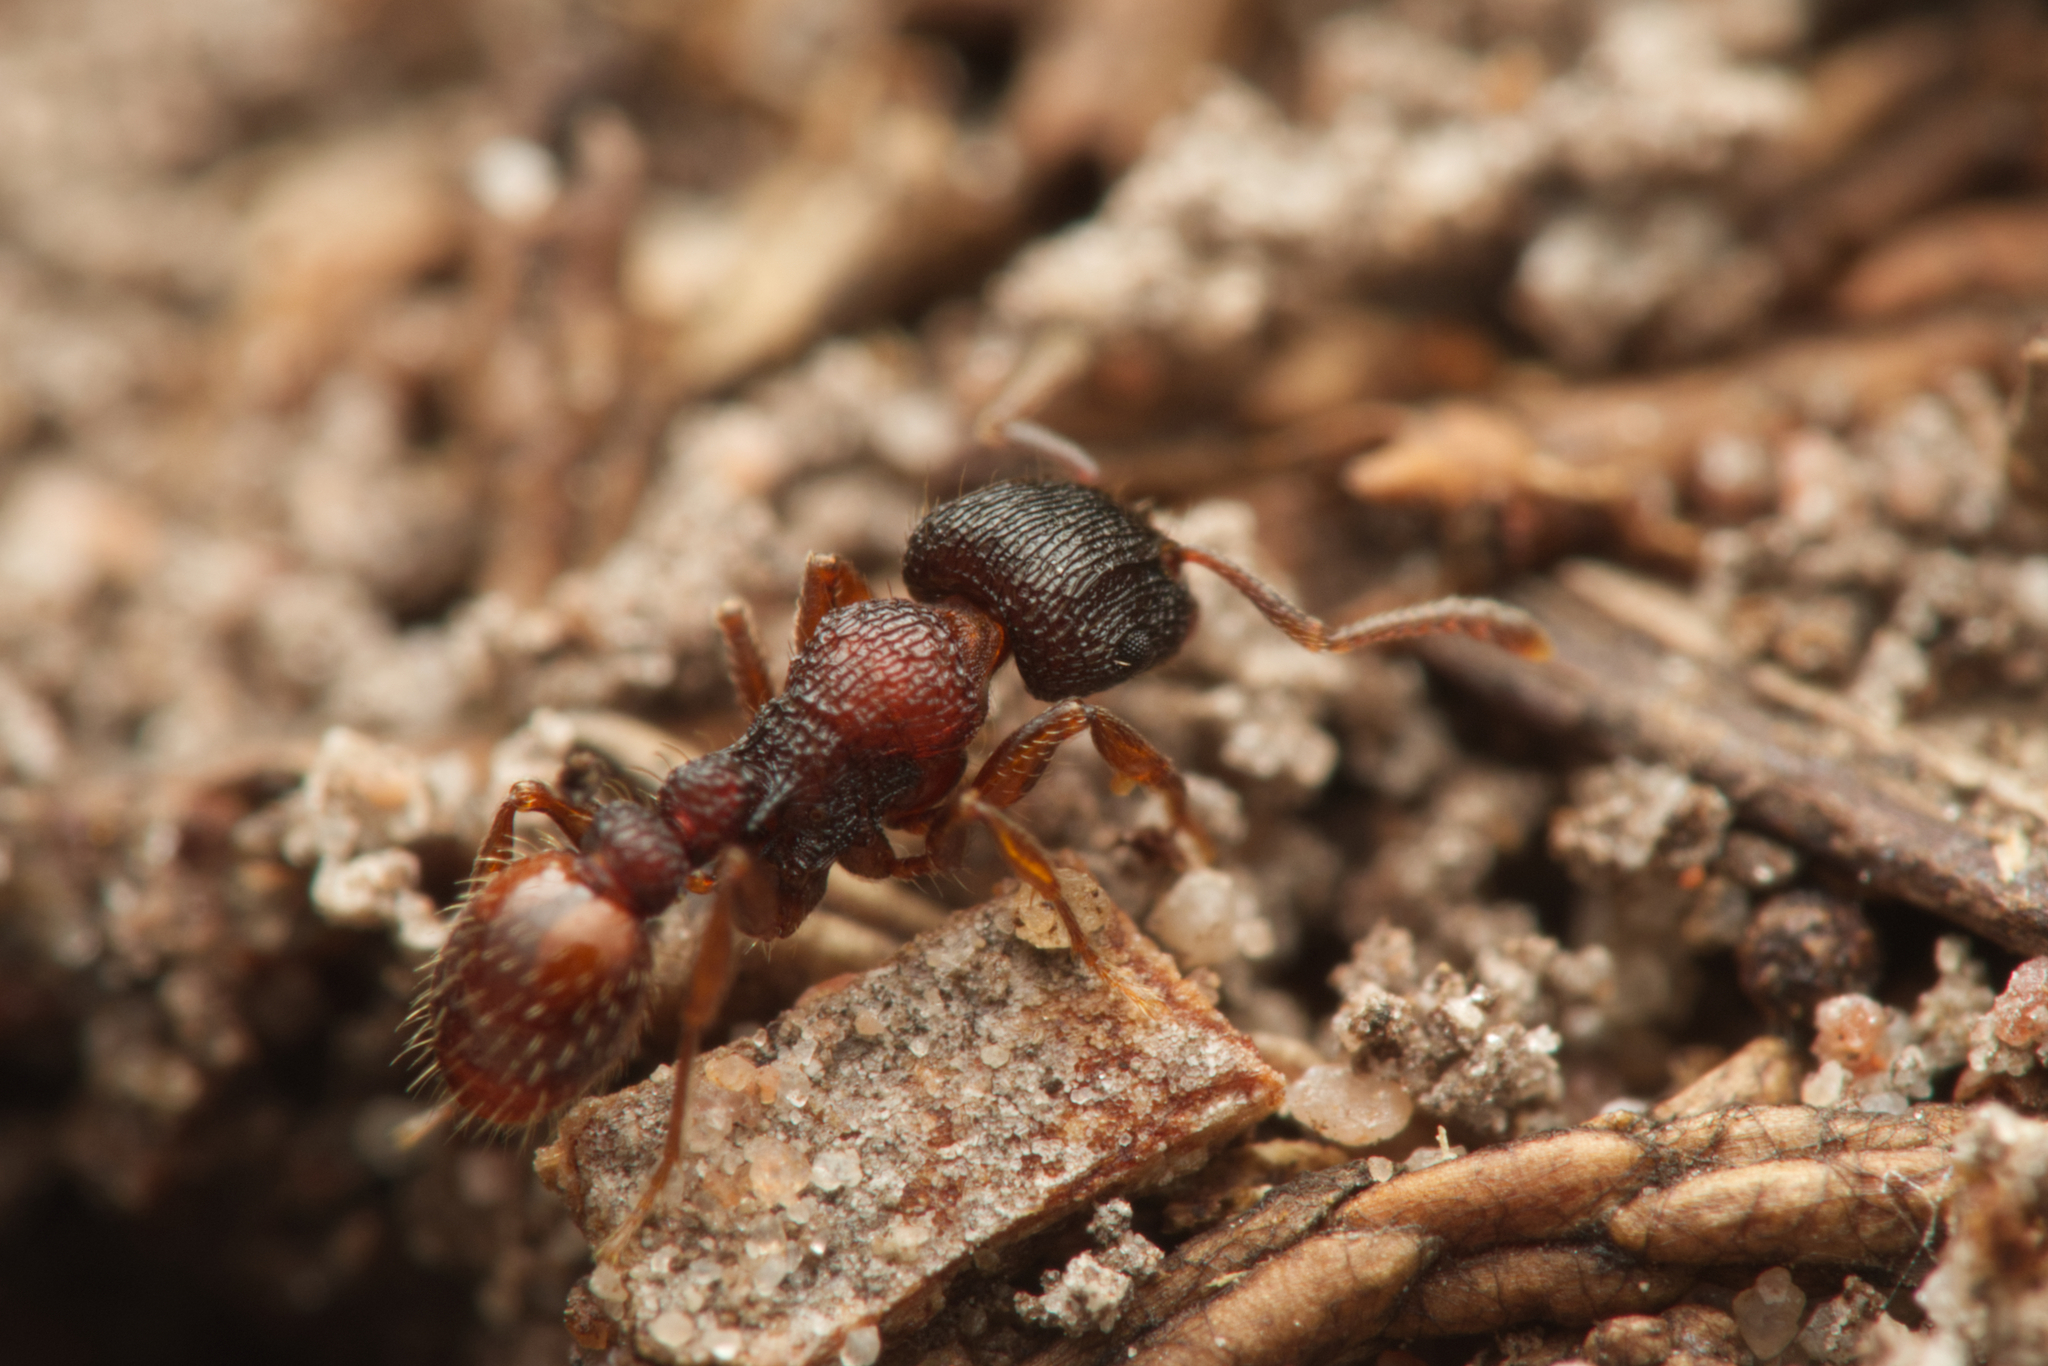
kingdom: Animalia
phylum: Arthropoda
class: Insecta
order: Hymenoptera
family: Formicidae
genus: Tetramorium
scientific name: Tetramorium impressum
